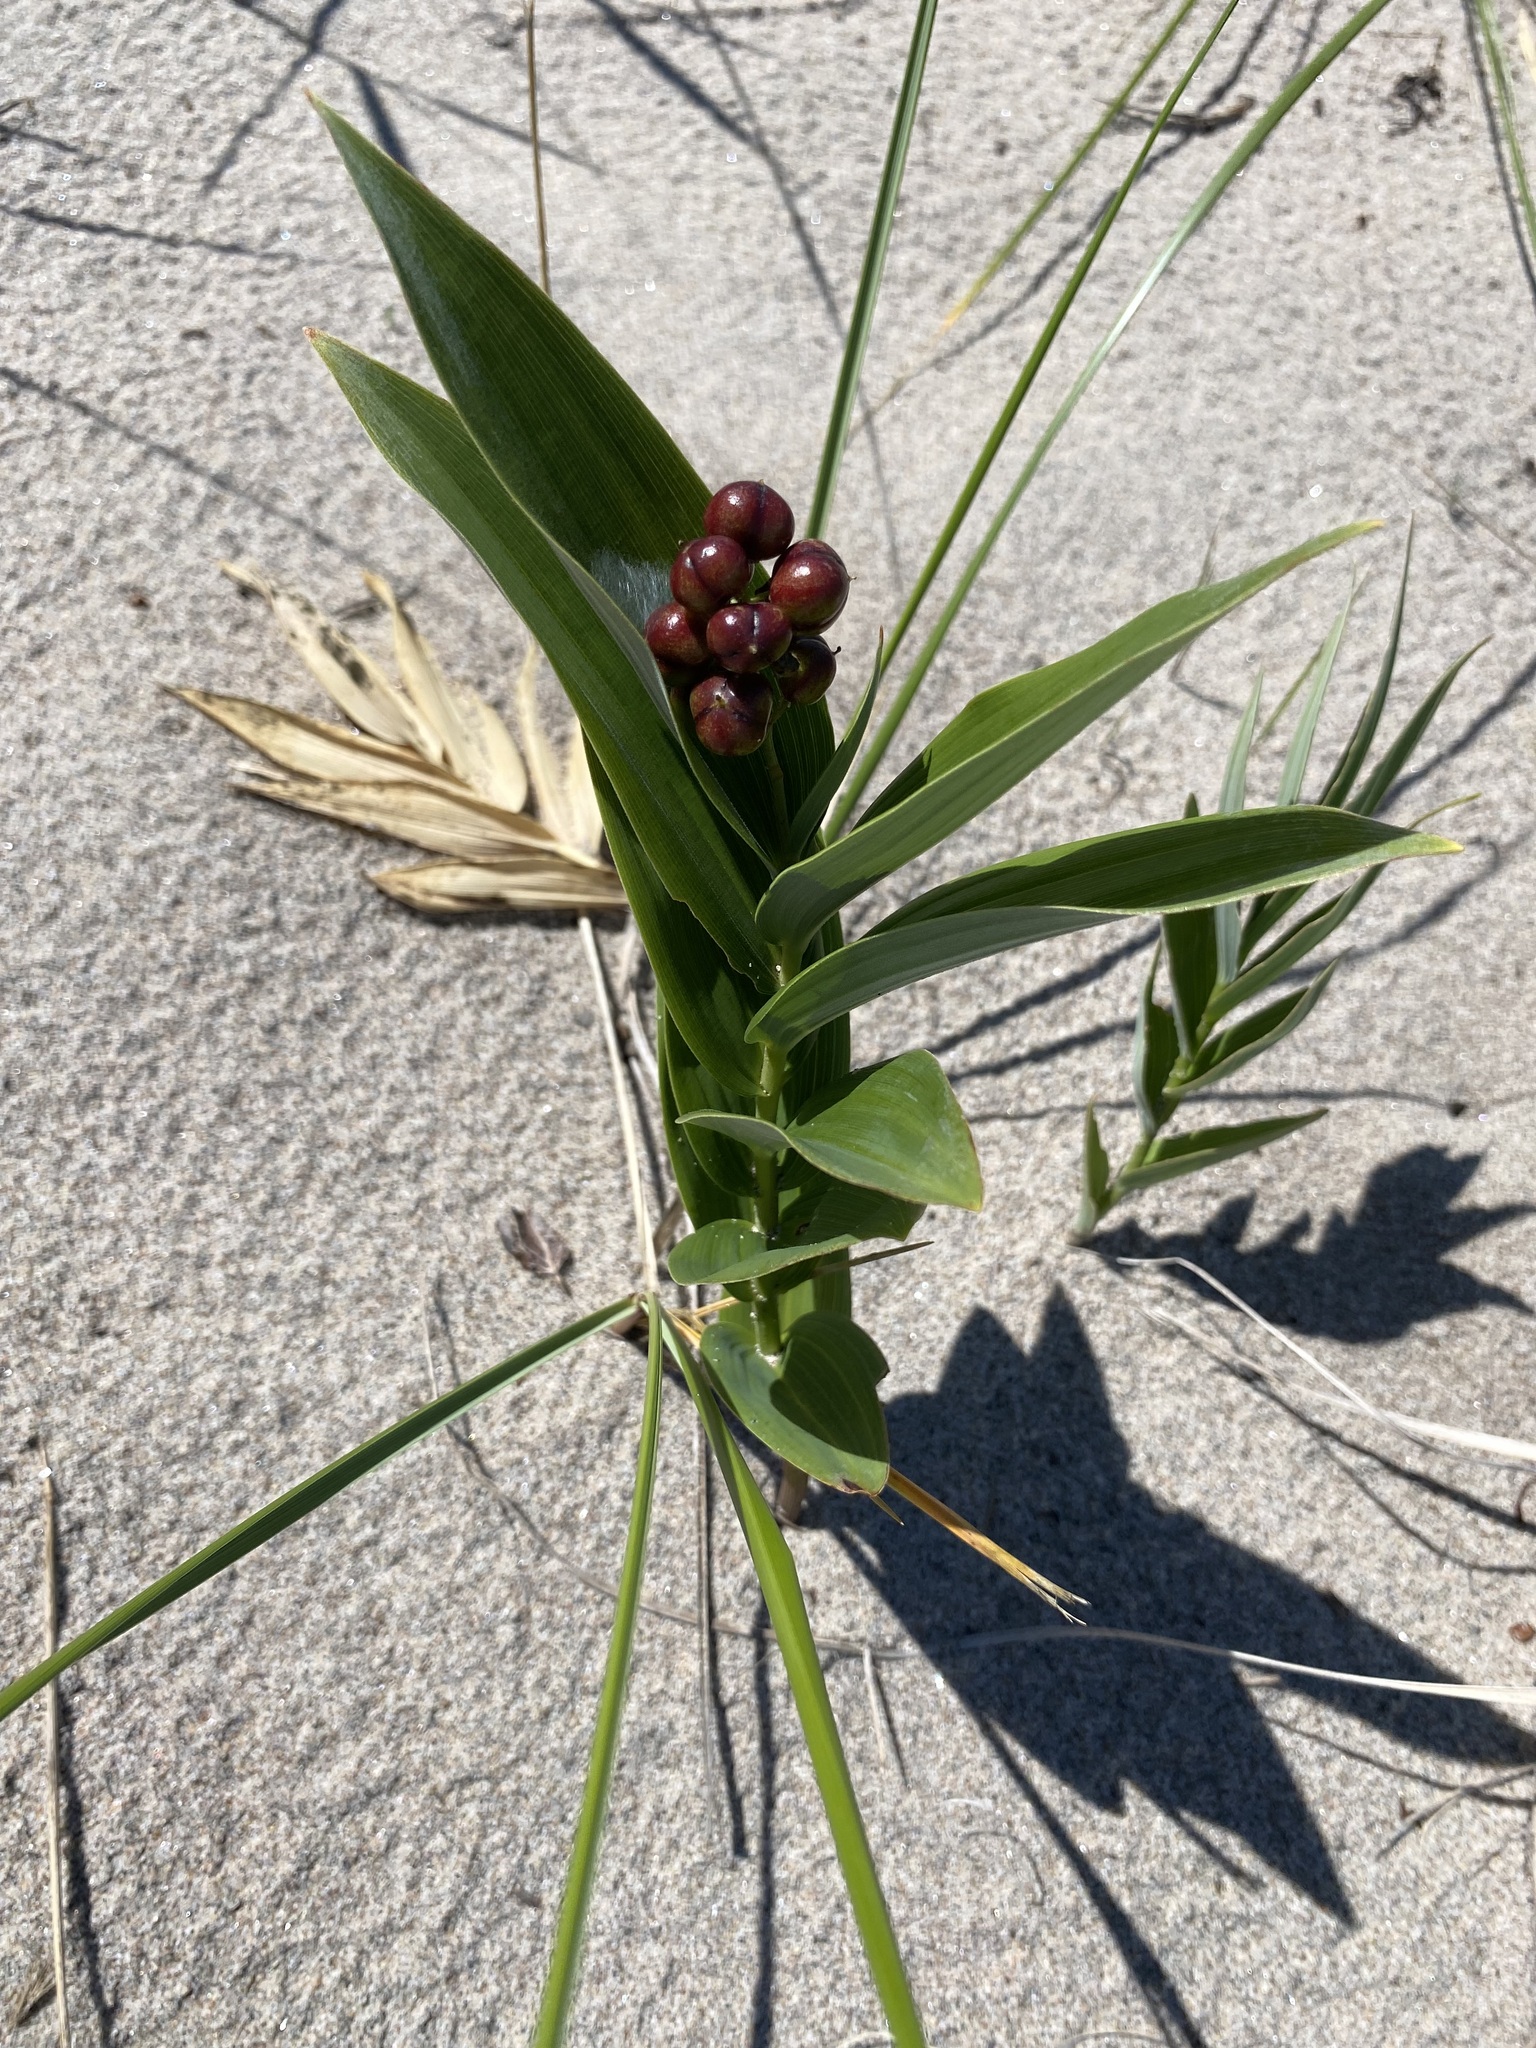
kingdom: Plantae
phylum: Tracheophyta
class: Liliopsida
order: Asparagales
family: Asparagaceae
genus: Maianthemum
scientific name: Maianthemum stellatum
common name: Little false solomon's seal
